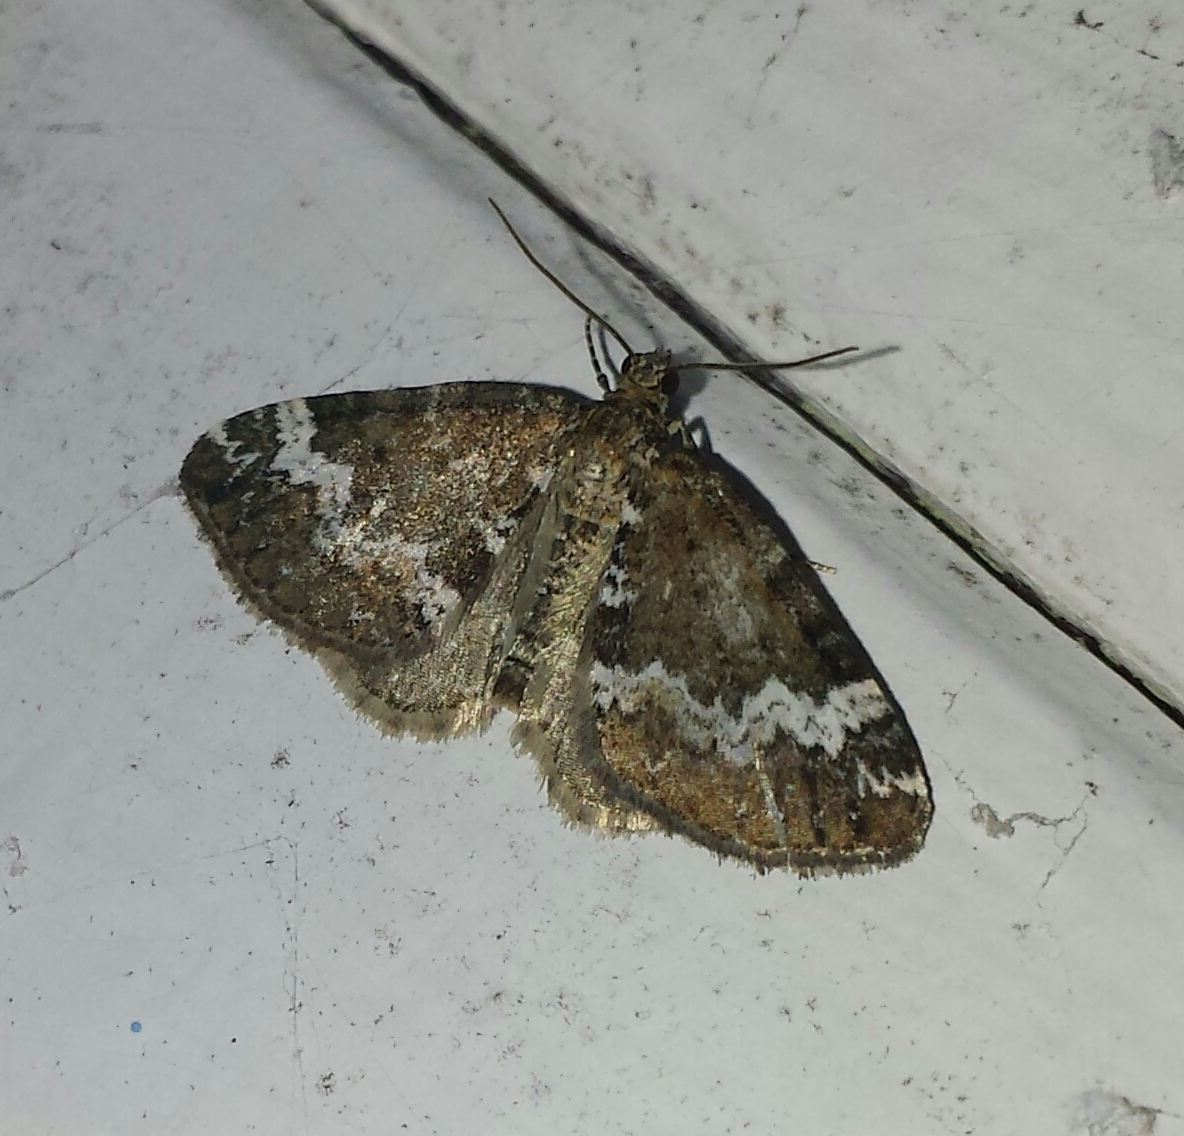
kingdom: Animalia
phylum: Arthropoda
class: Insecta
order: Lepidoptera
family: Geometridae
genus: Perizoma
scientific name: Perizoma alchemillata
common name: Small rivulet
